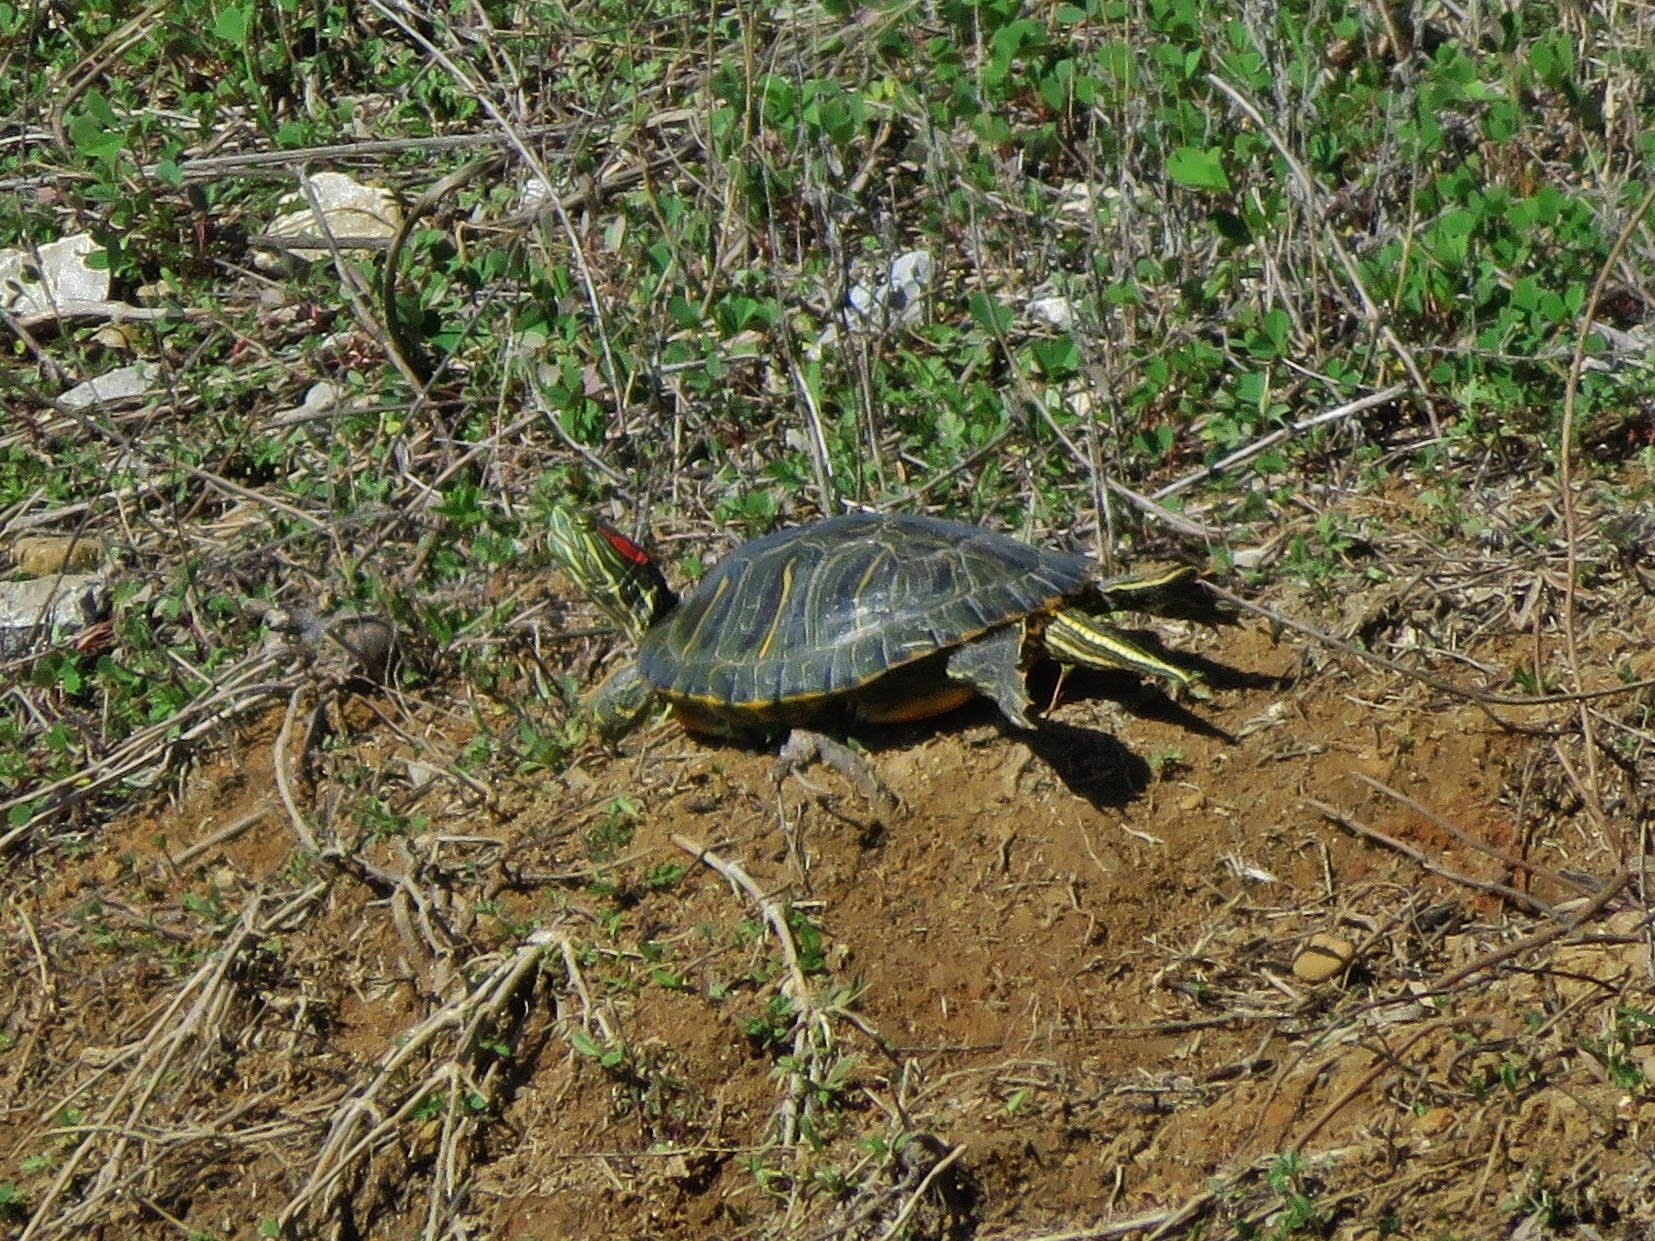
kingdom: Animalia
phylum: Chordata
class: Testudines
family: Emydidae
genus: Trachemys
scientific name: Trachemys scripta
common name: Slider
